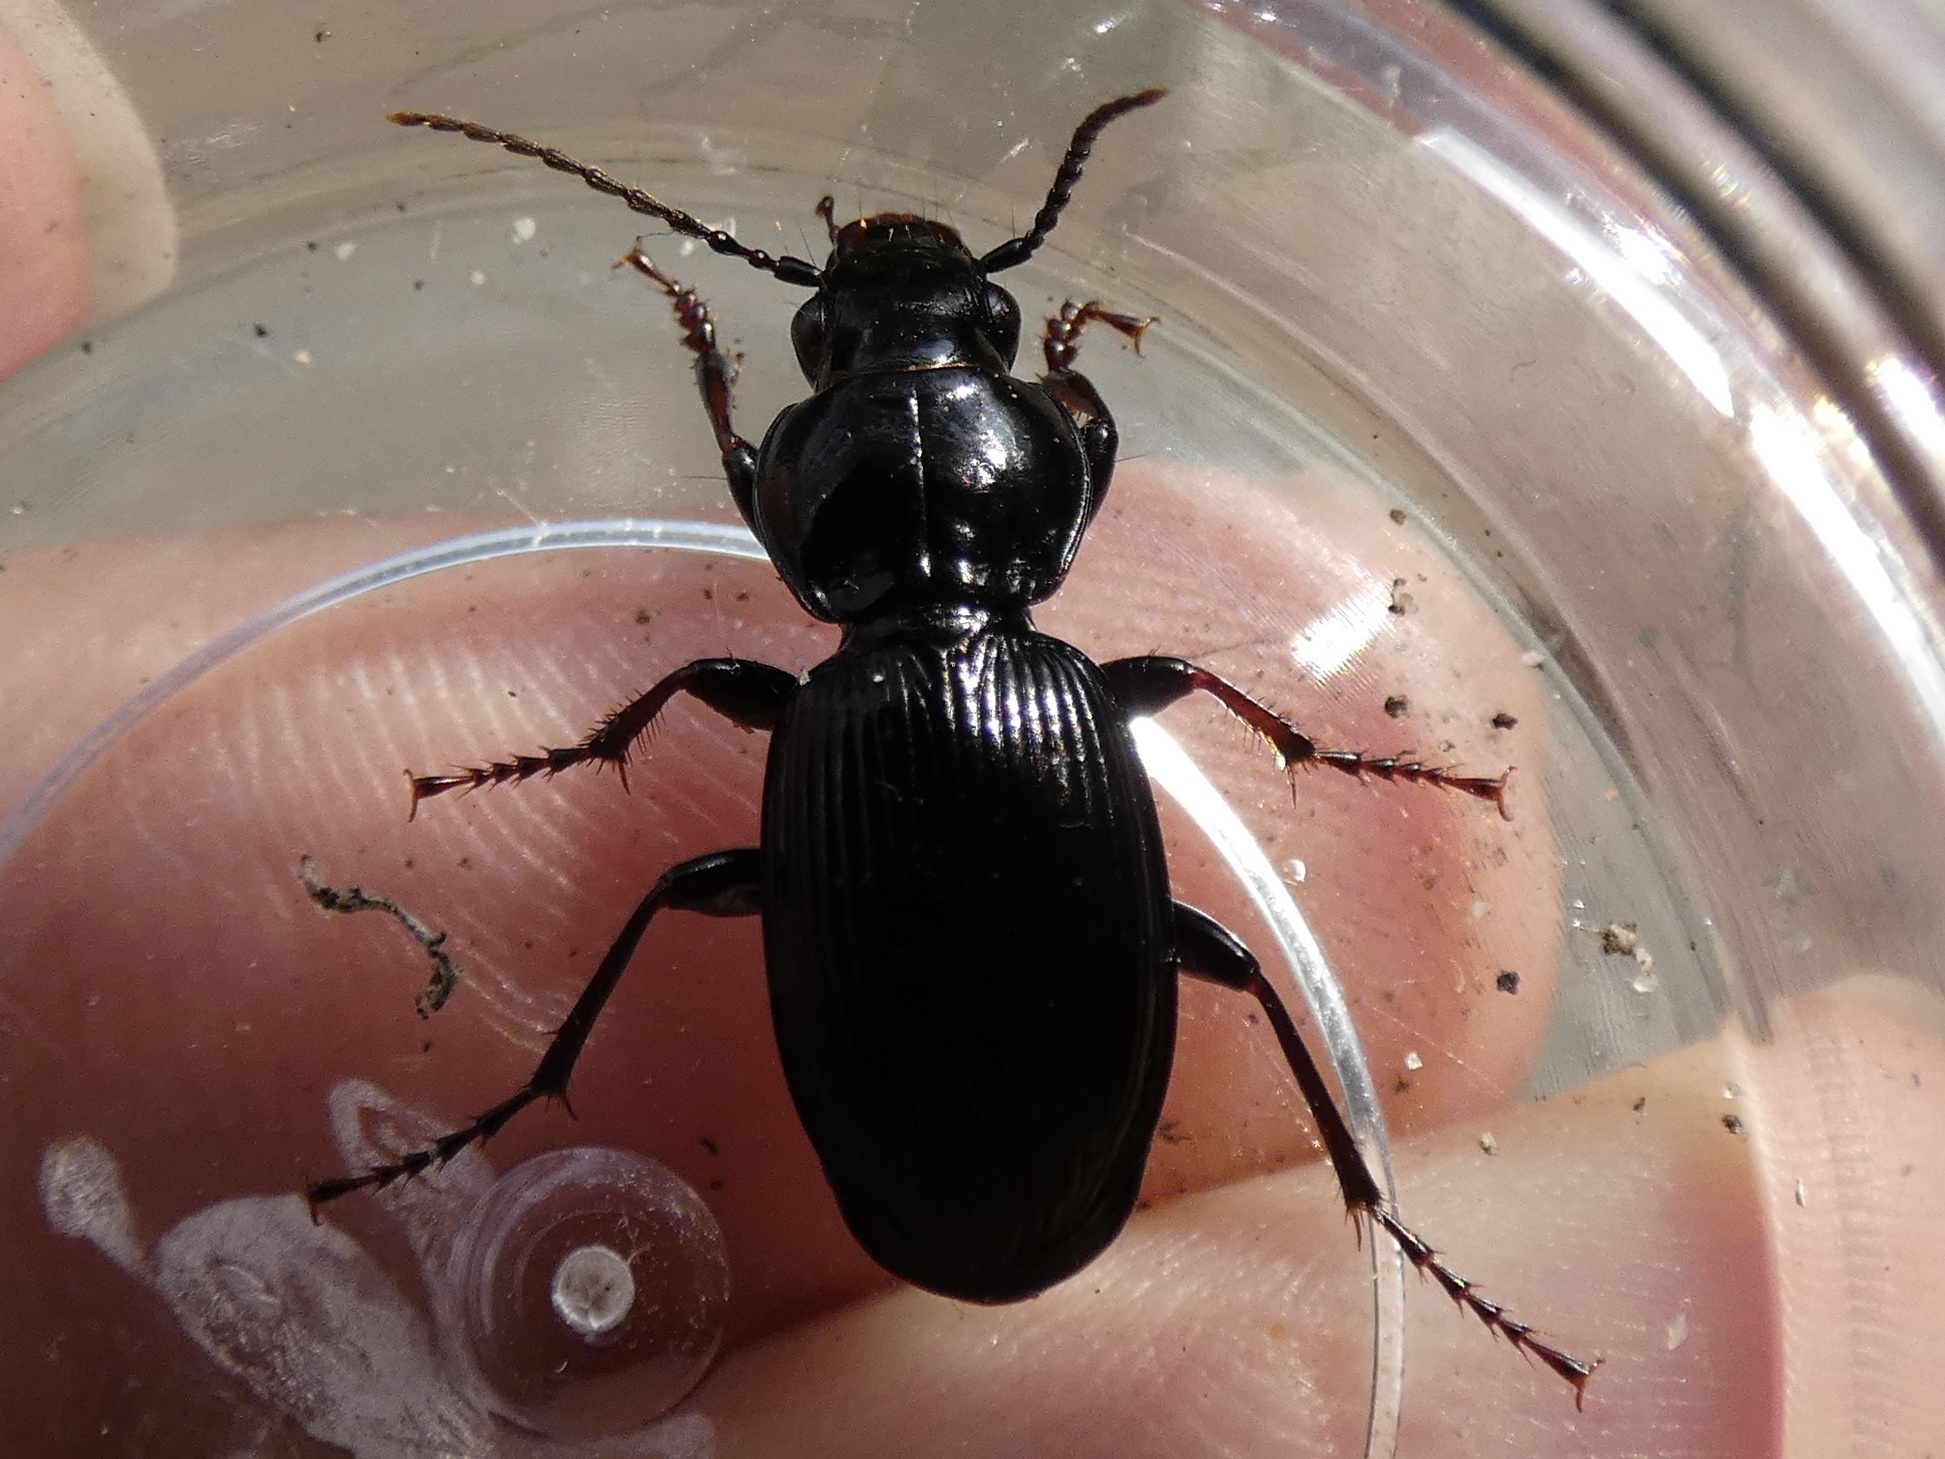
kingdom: Animalia
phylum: Arthropoda
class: Insecta
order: Coleoptera
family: Carabidae
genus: Pterostichus
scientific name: Pterostichus madidus
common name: Black clock
